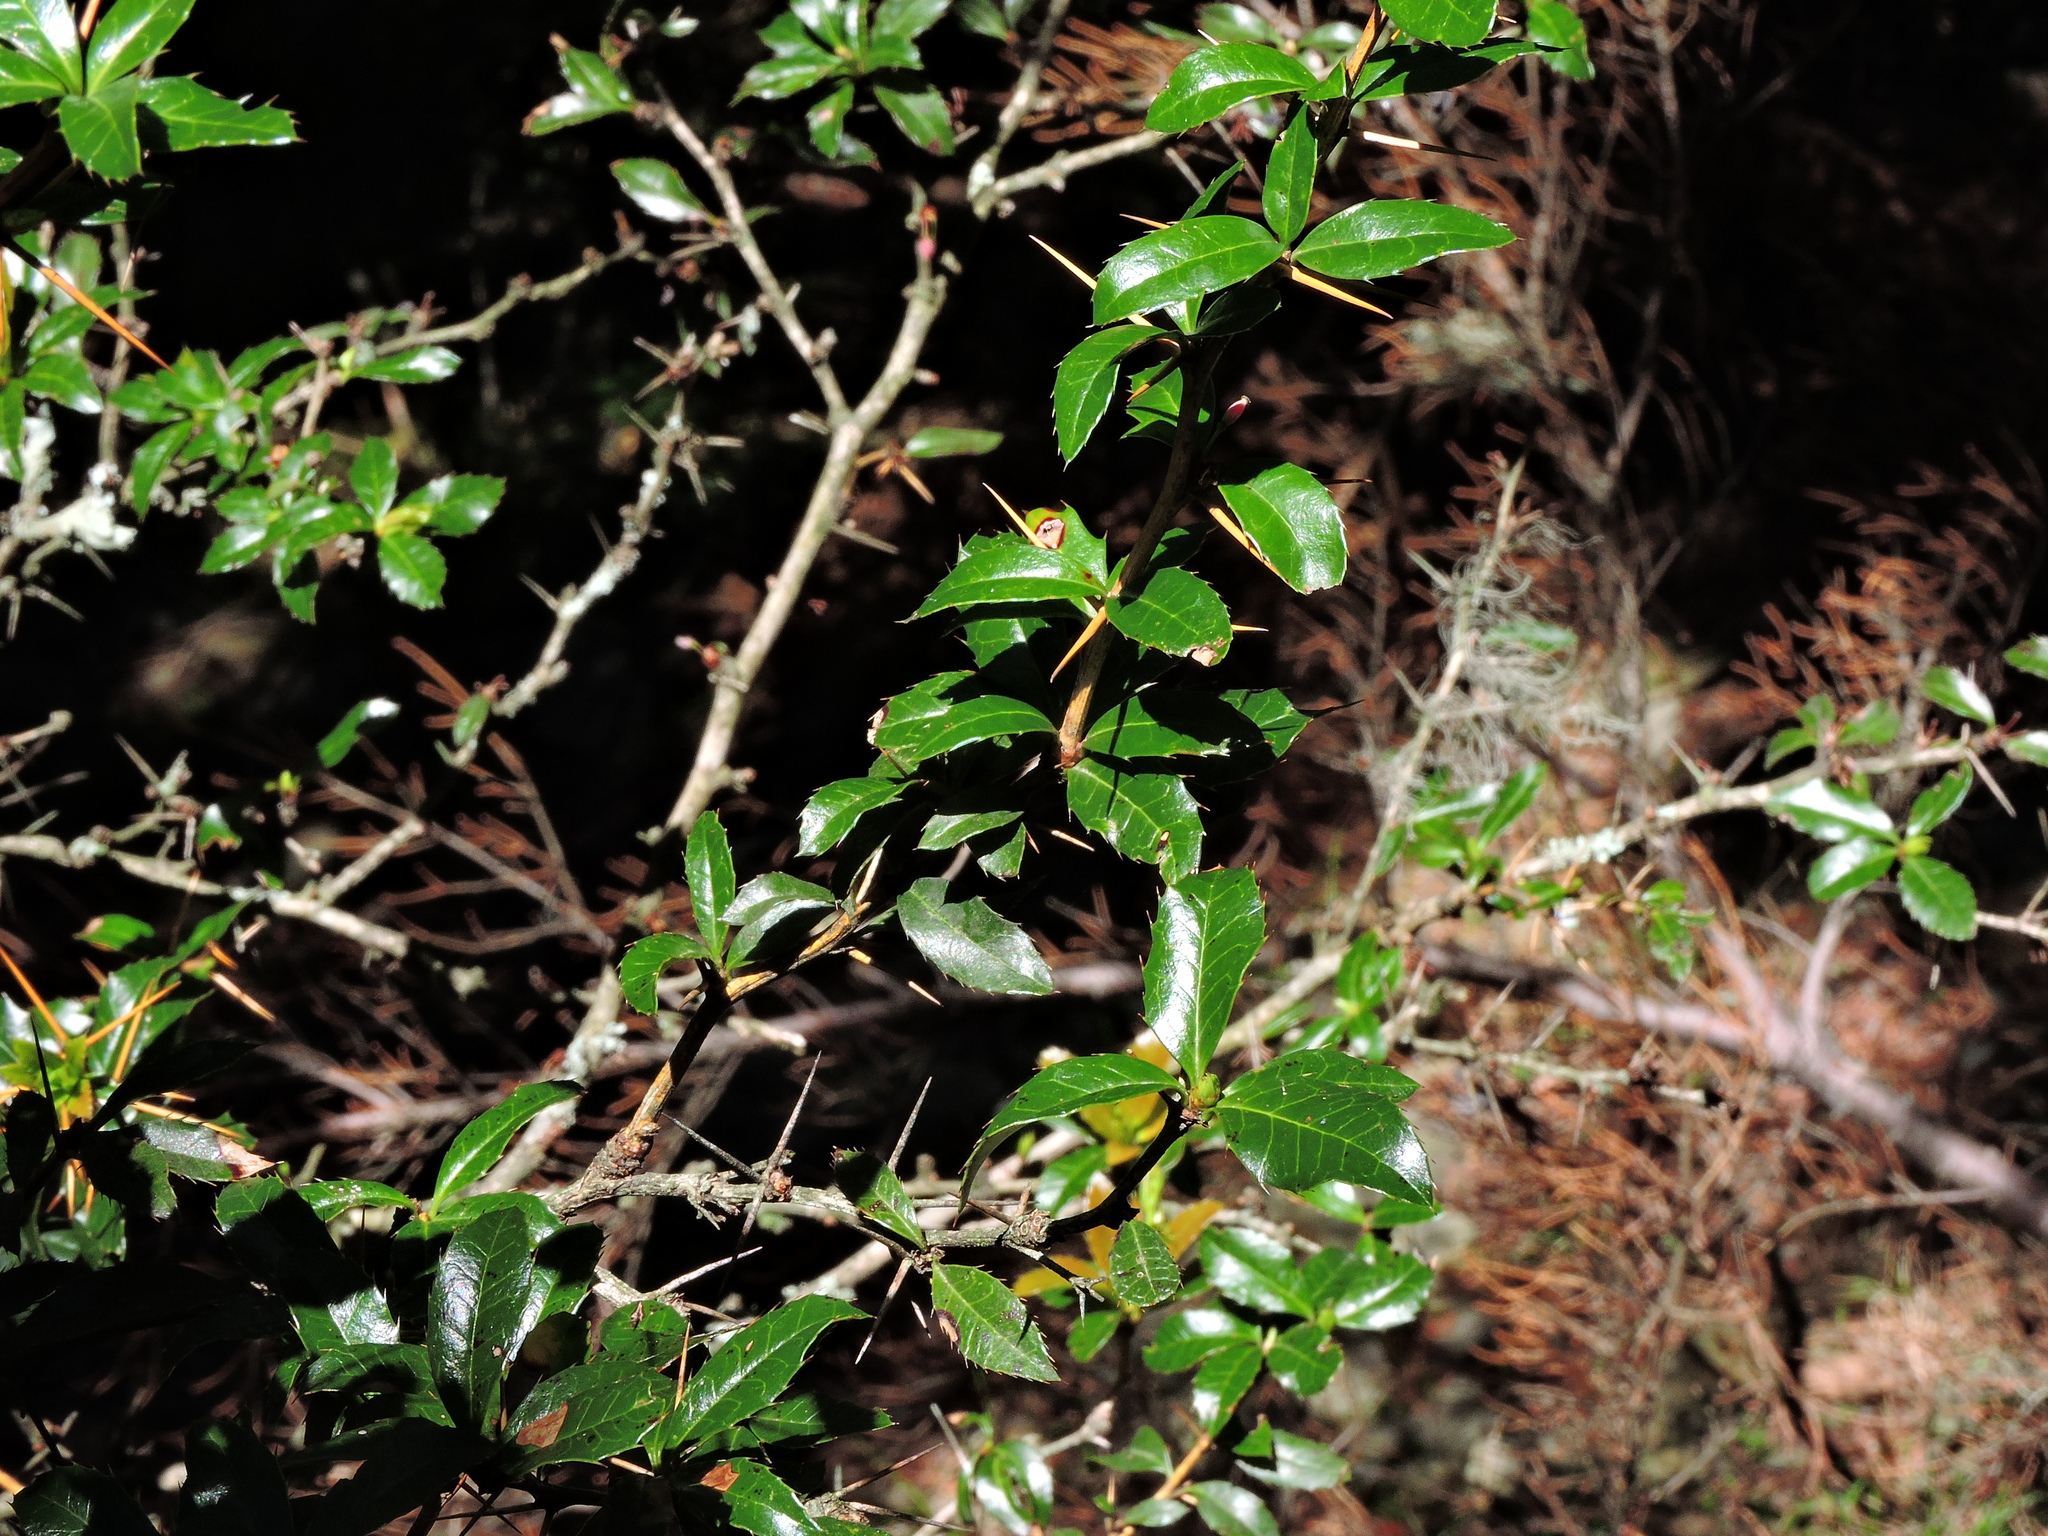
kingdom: Plantae
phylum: Tracheophyta
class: Magnoliopsida
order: Ranunculales
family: Berberidaceae
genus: Berberis
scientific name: Berberis kawakamii
